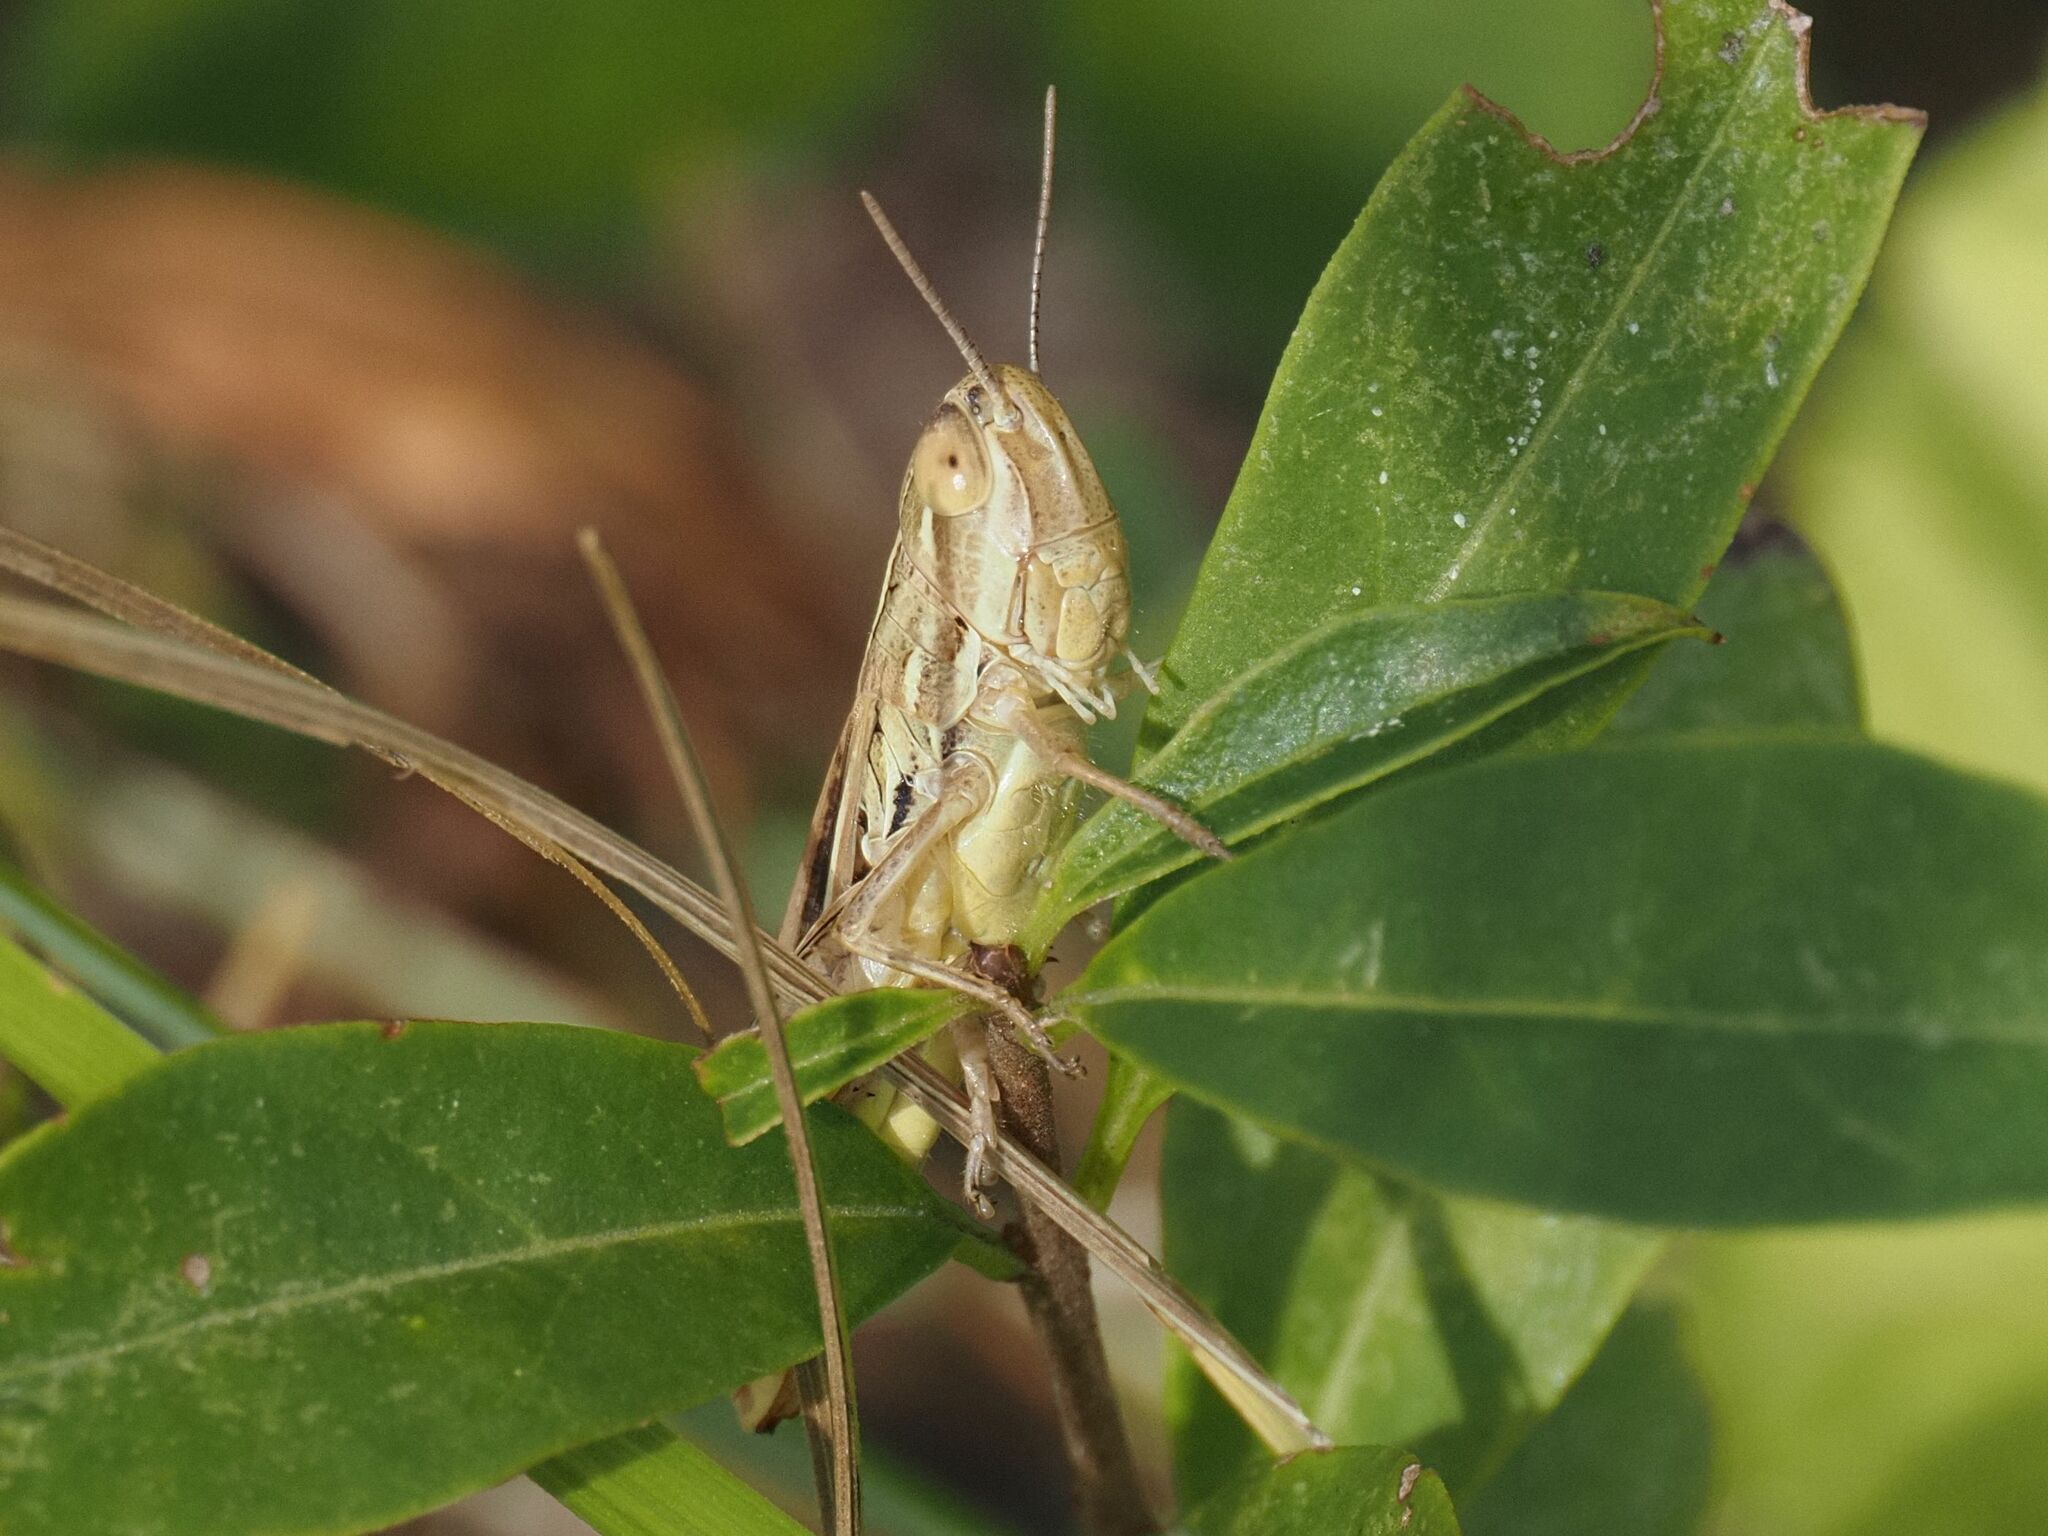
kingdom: Animalia
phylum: Arthropoda
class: Insecta
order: Orthoptera
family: Acrididae
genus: Euchorthippus
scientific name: Euchorthippus declivus
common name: Common straw grasshopper
